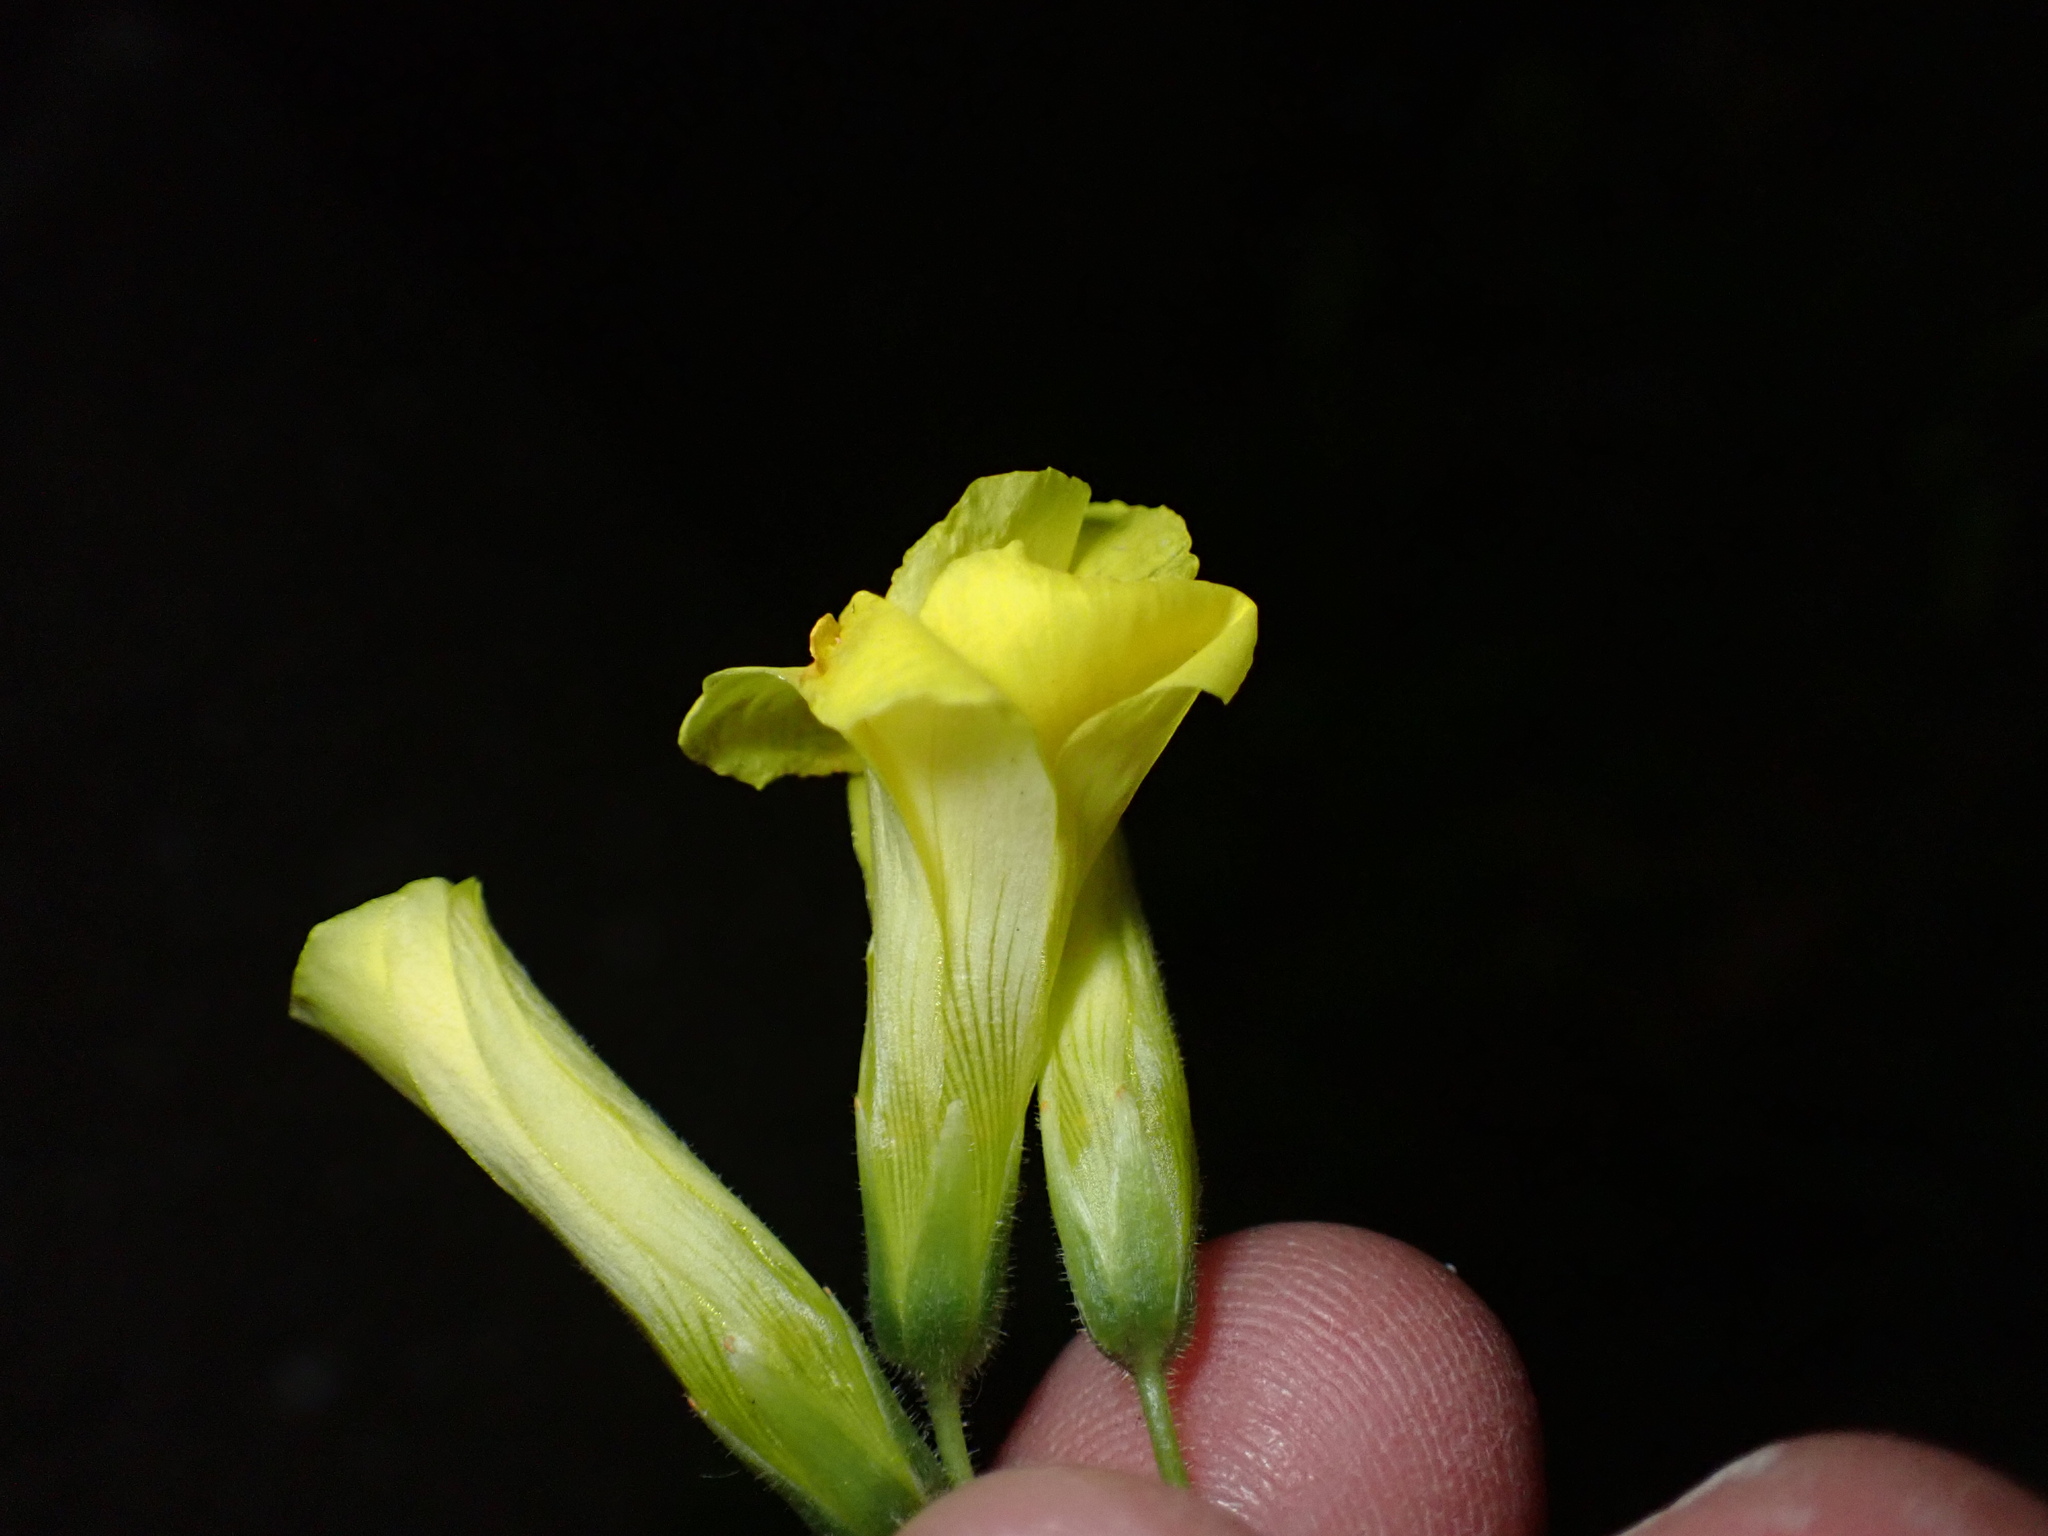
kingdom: Plantae
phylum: Tracheophyta
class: Magnoliopsida
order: Oxalidales
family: Oxalidaceae
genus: Oxalis
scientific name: Oxalis pes-caprae
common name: Bermuda-buttercup
